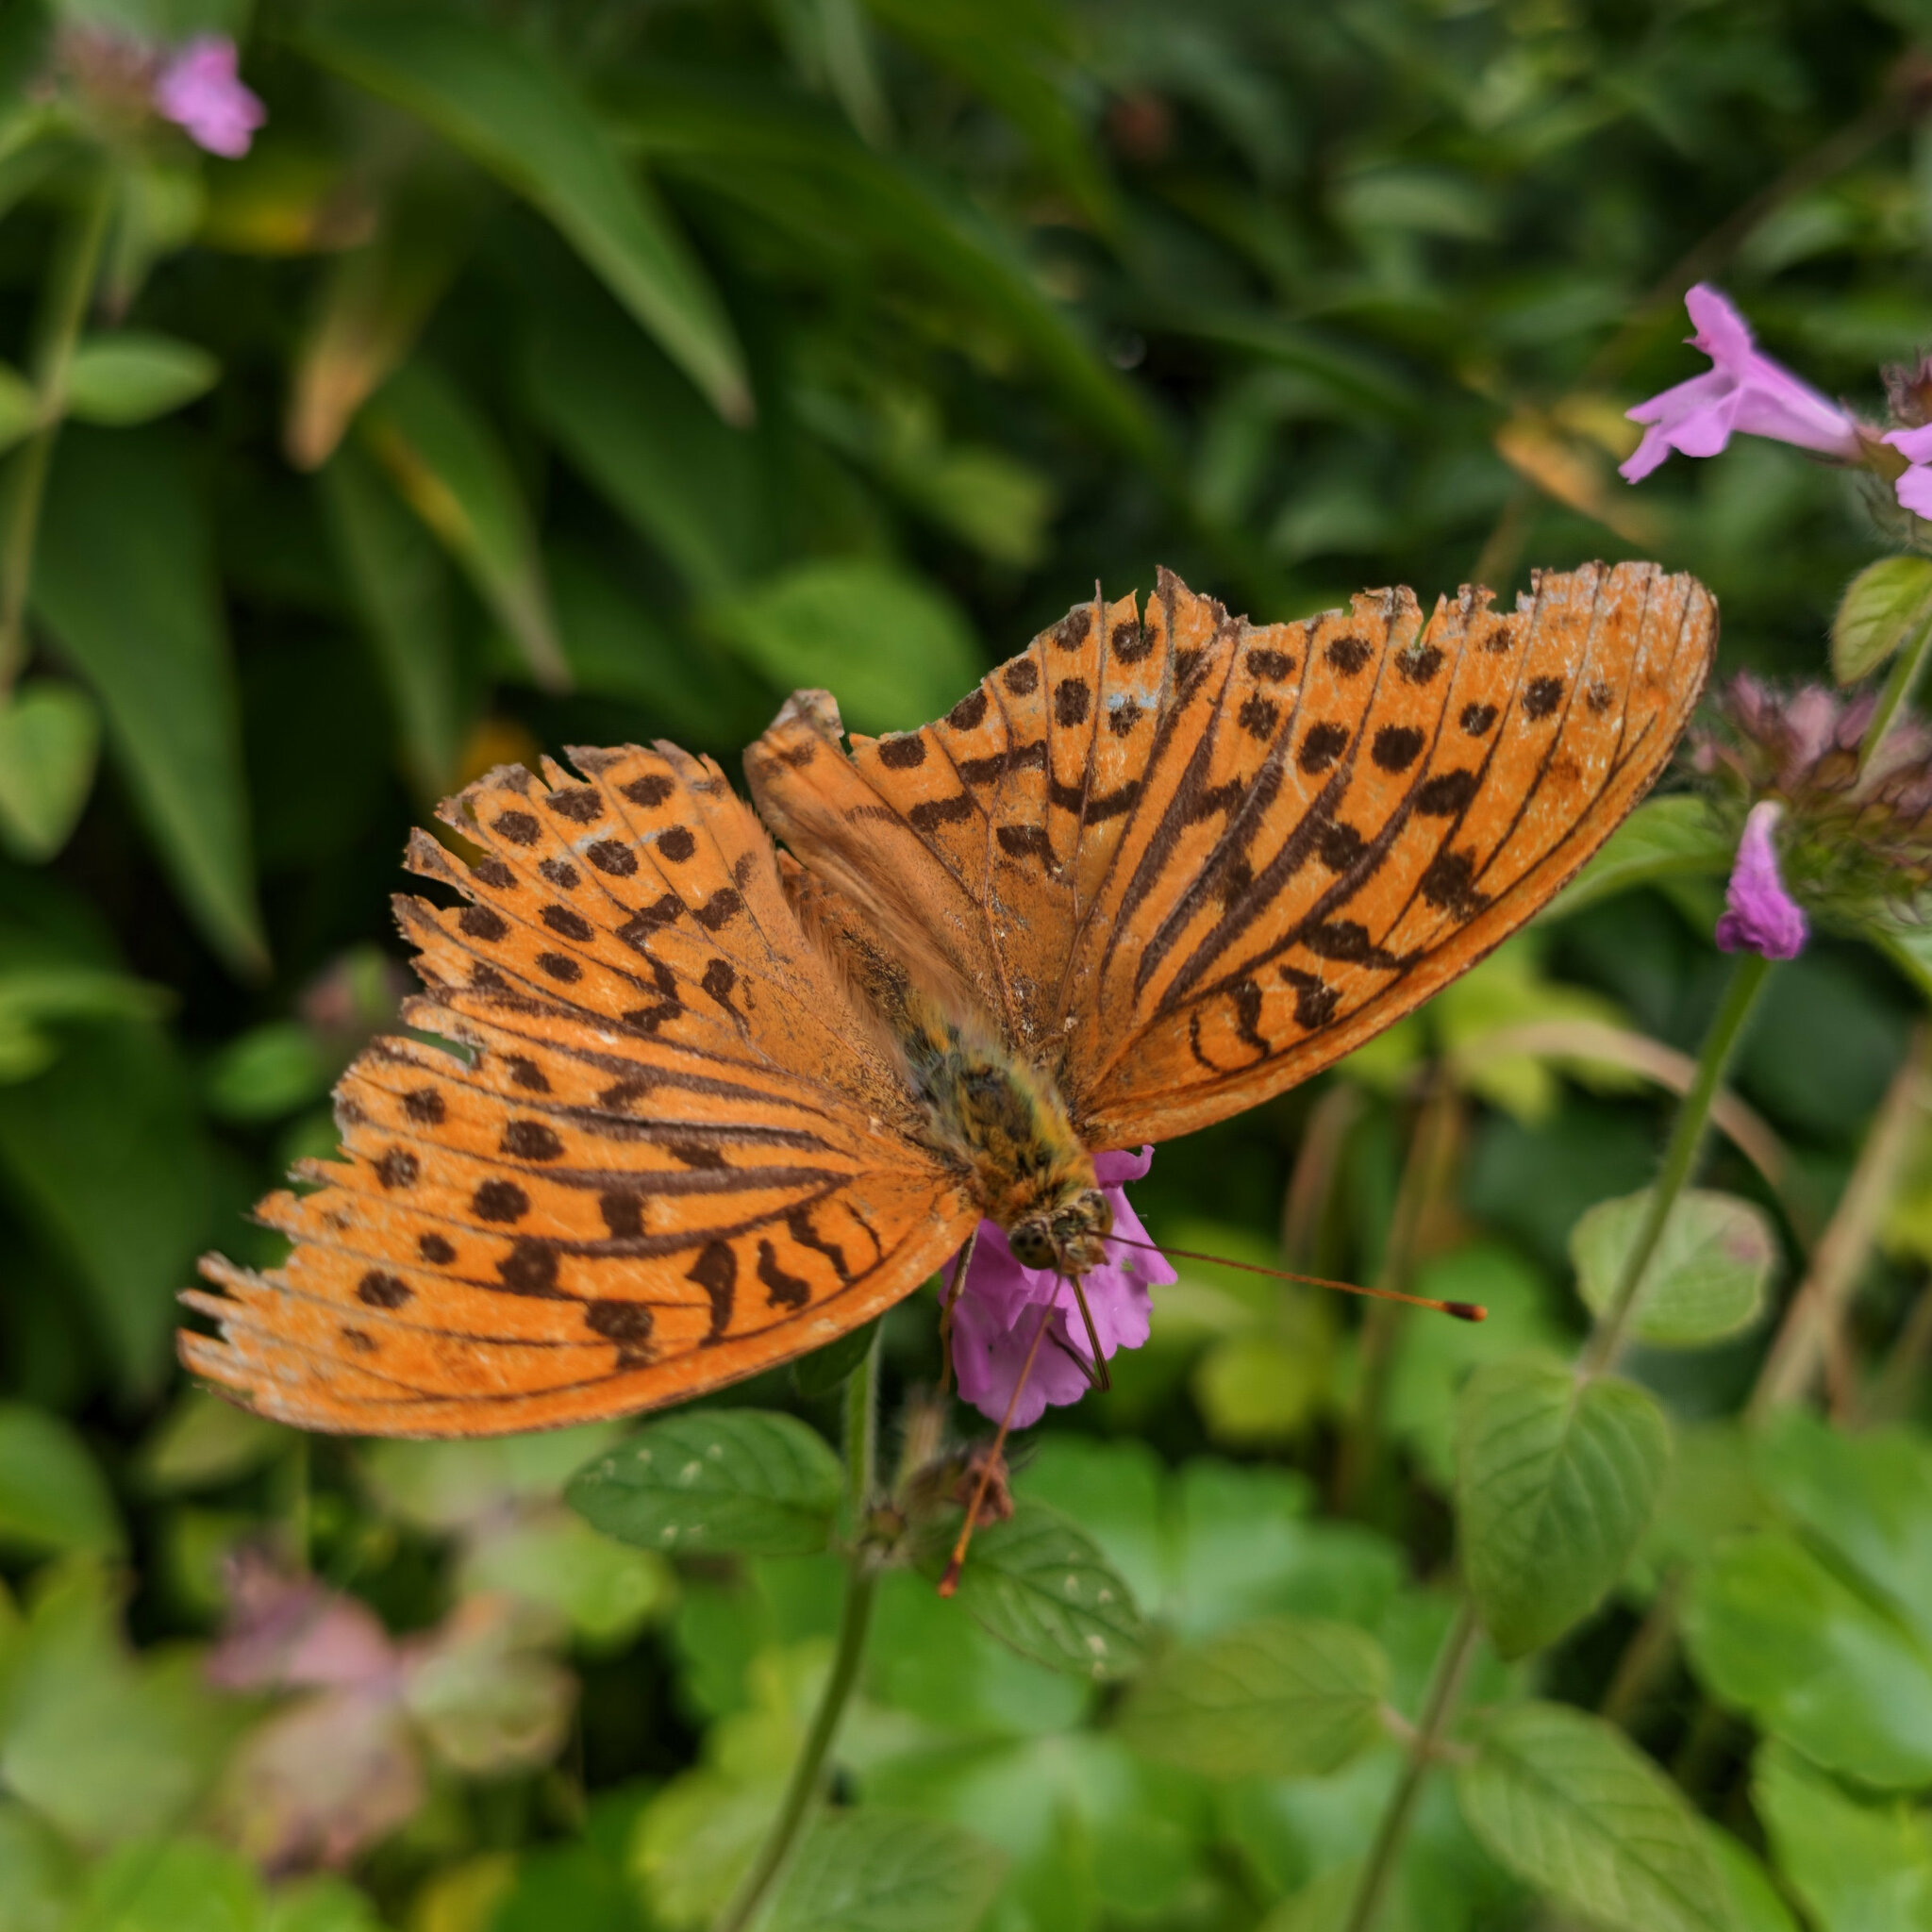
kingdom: Animalia
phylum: Arthropoda
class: Insecta
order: Lepidoptera
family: Nymphalidae
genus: Argynnis
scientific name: Argynnis paphia
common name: Silver-washed fritillary
